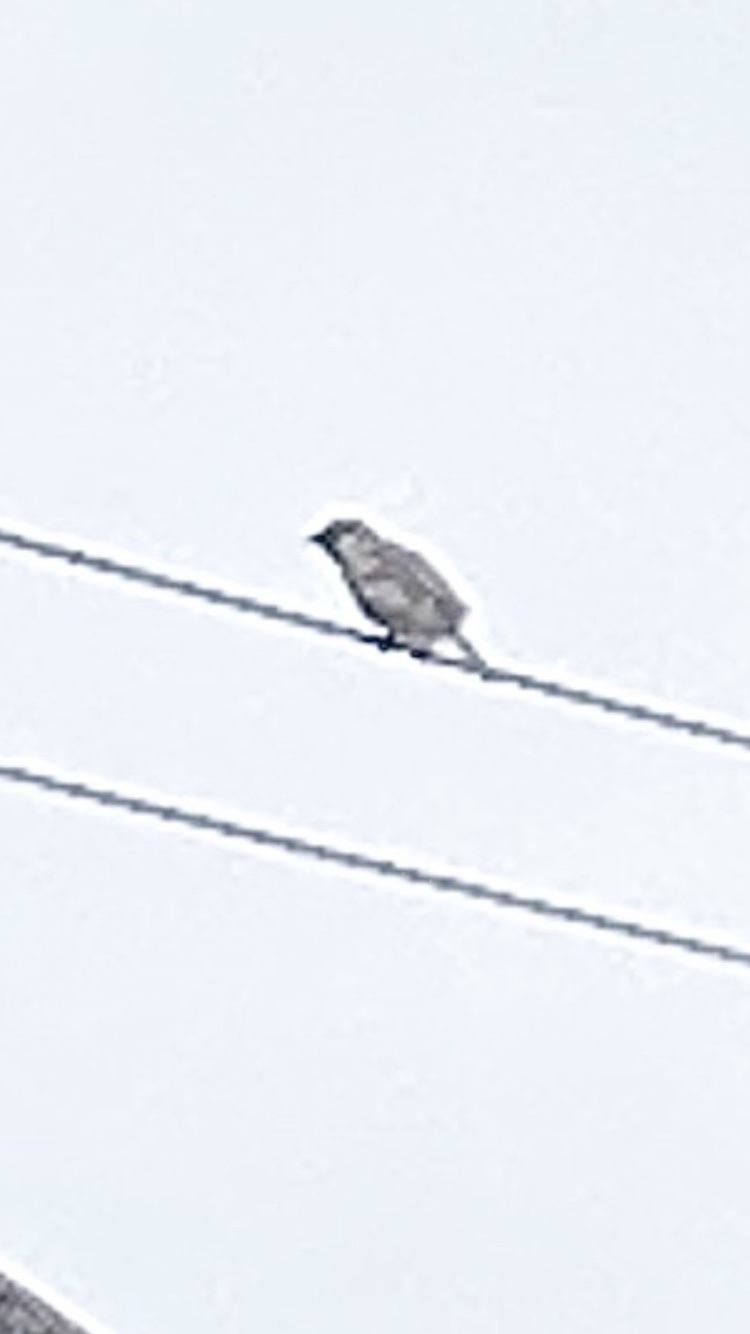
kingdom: Animalia
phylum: Chordata
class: Aves
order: Passeriformes
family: Passeridae
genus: Passer
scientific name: Passer domesticus
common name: House sparrow
